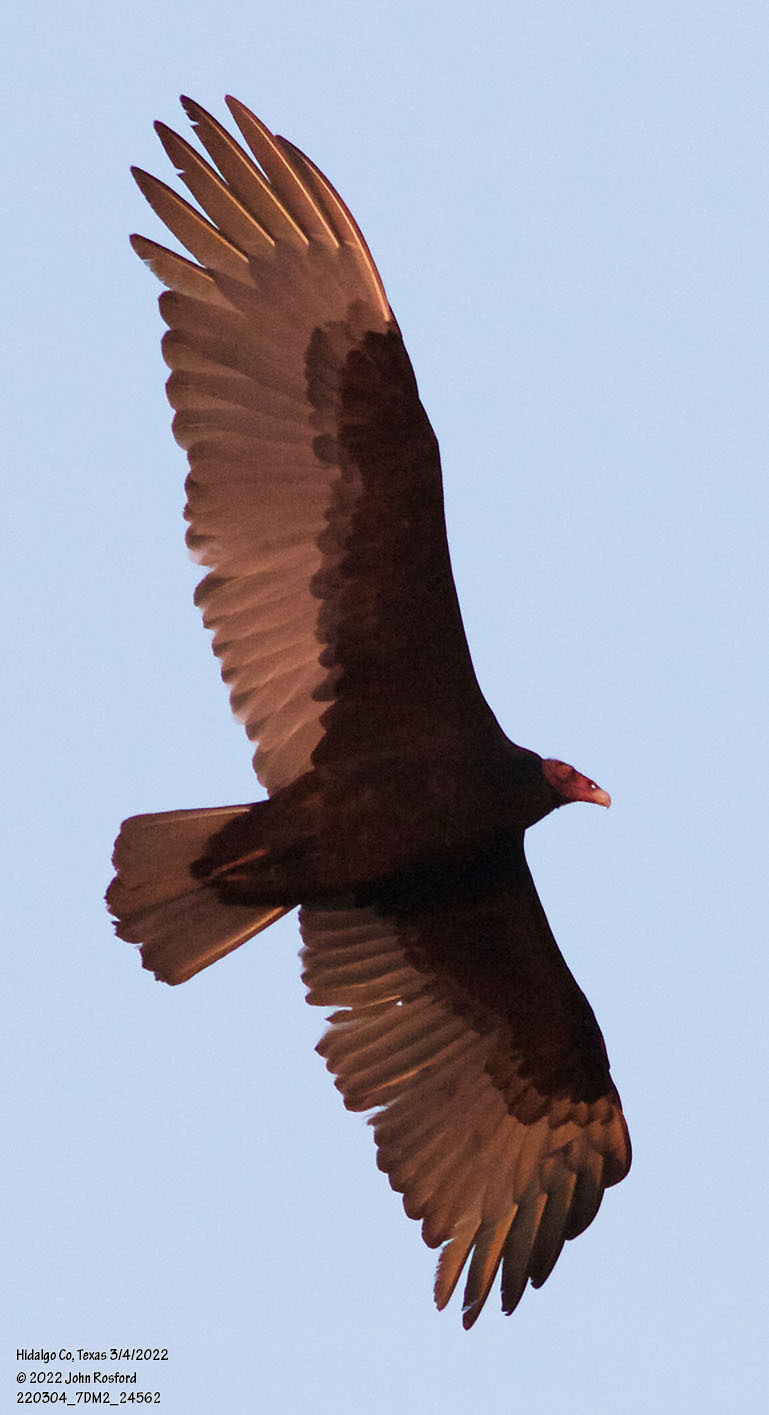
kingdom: Animalia
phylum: Chordata
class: Aves
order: Accipitriformes
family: Cathartidae
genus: Cathartes
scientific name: Cathartes aura
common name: Turkey vulture
